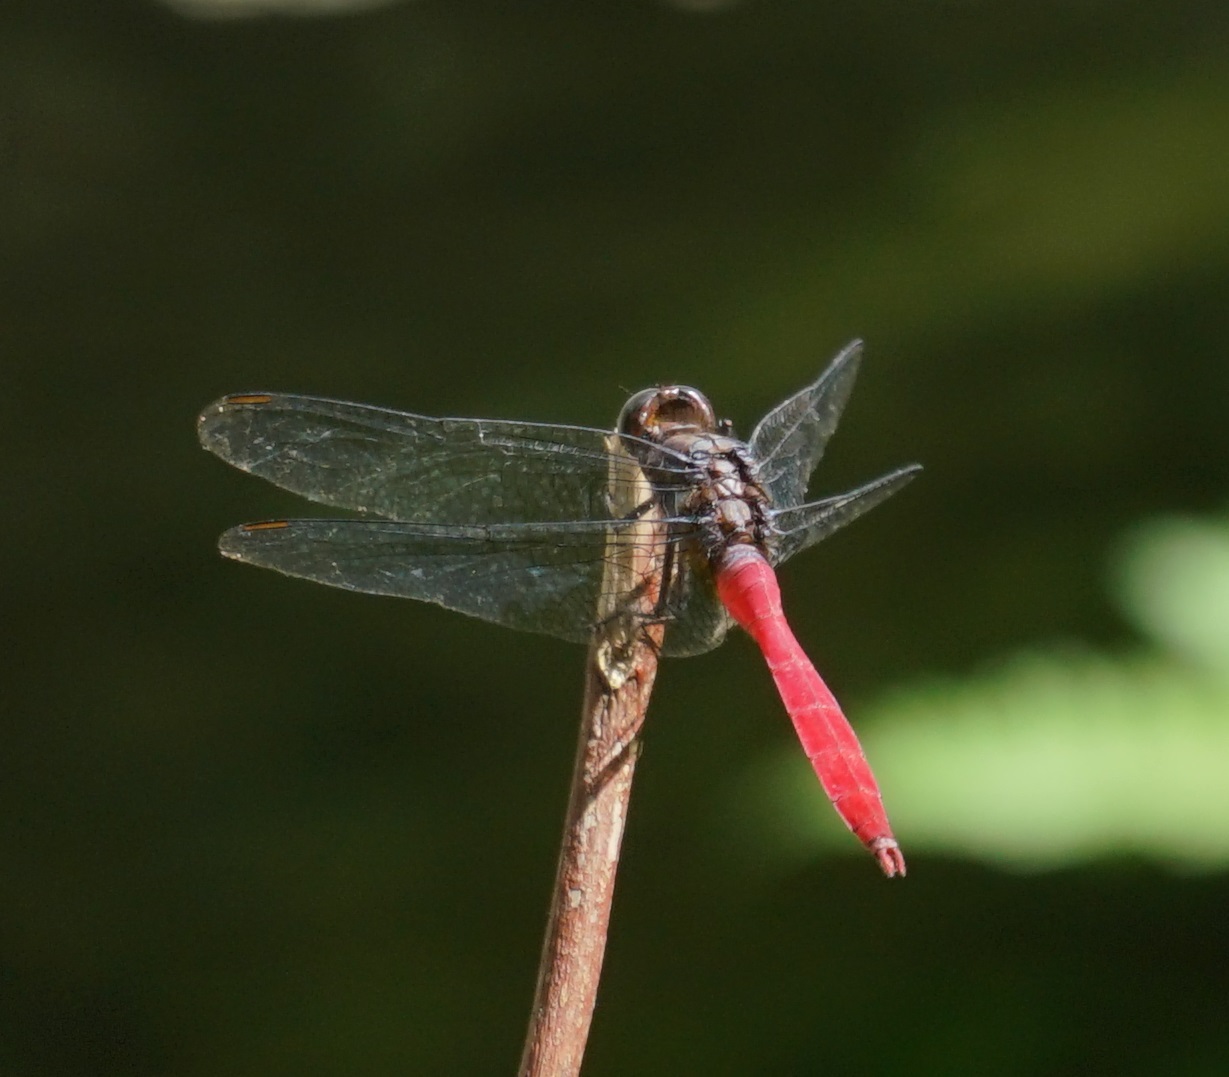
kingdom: Animalia
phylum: Arthropoda
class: Insecta
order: Odonata
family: Libellulidae
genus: Orthetrum
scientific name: Orthetrum villosovittatum
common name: Firery skimmer
